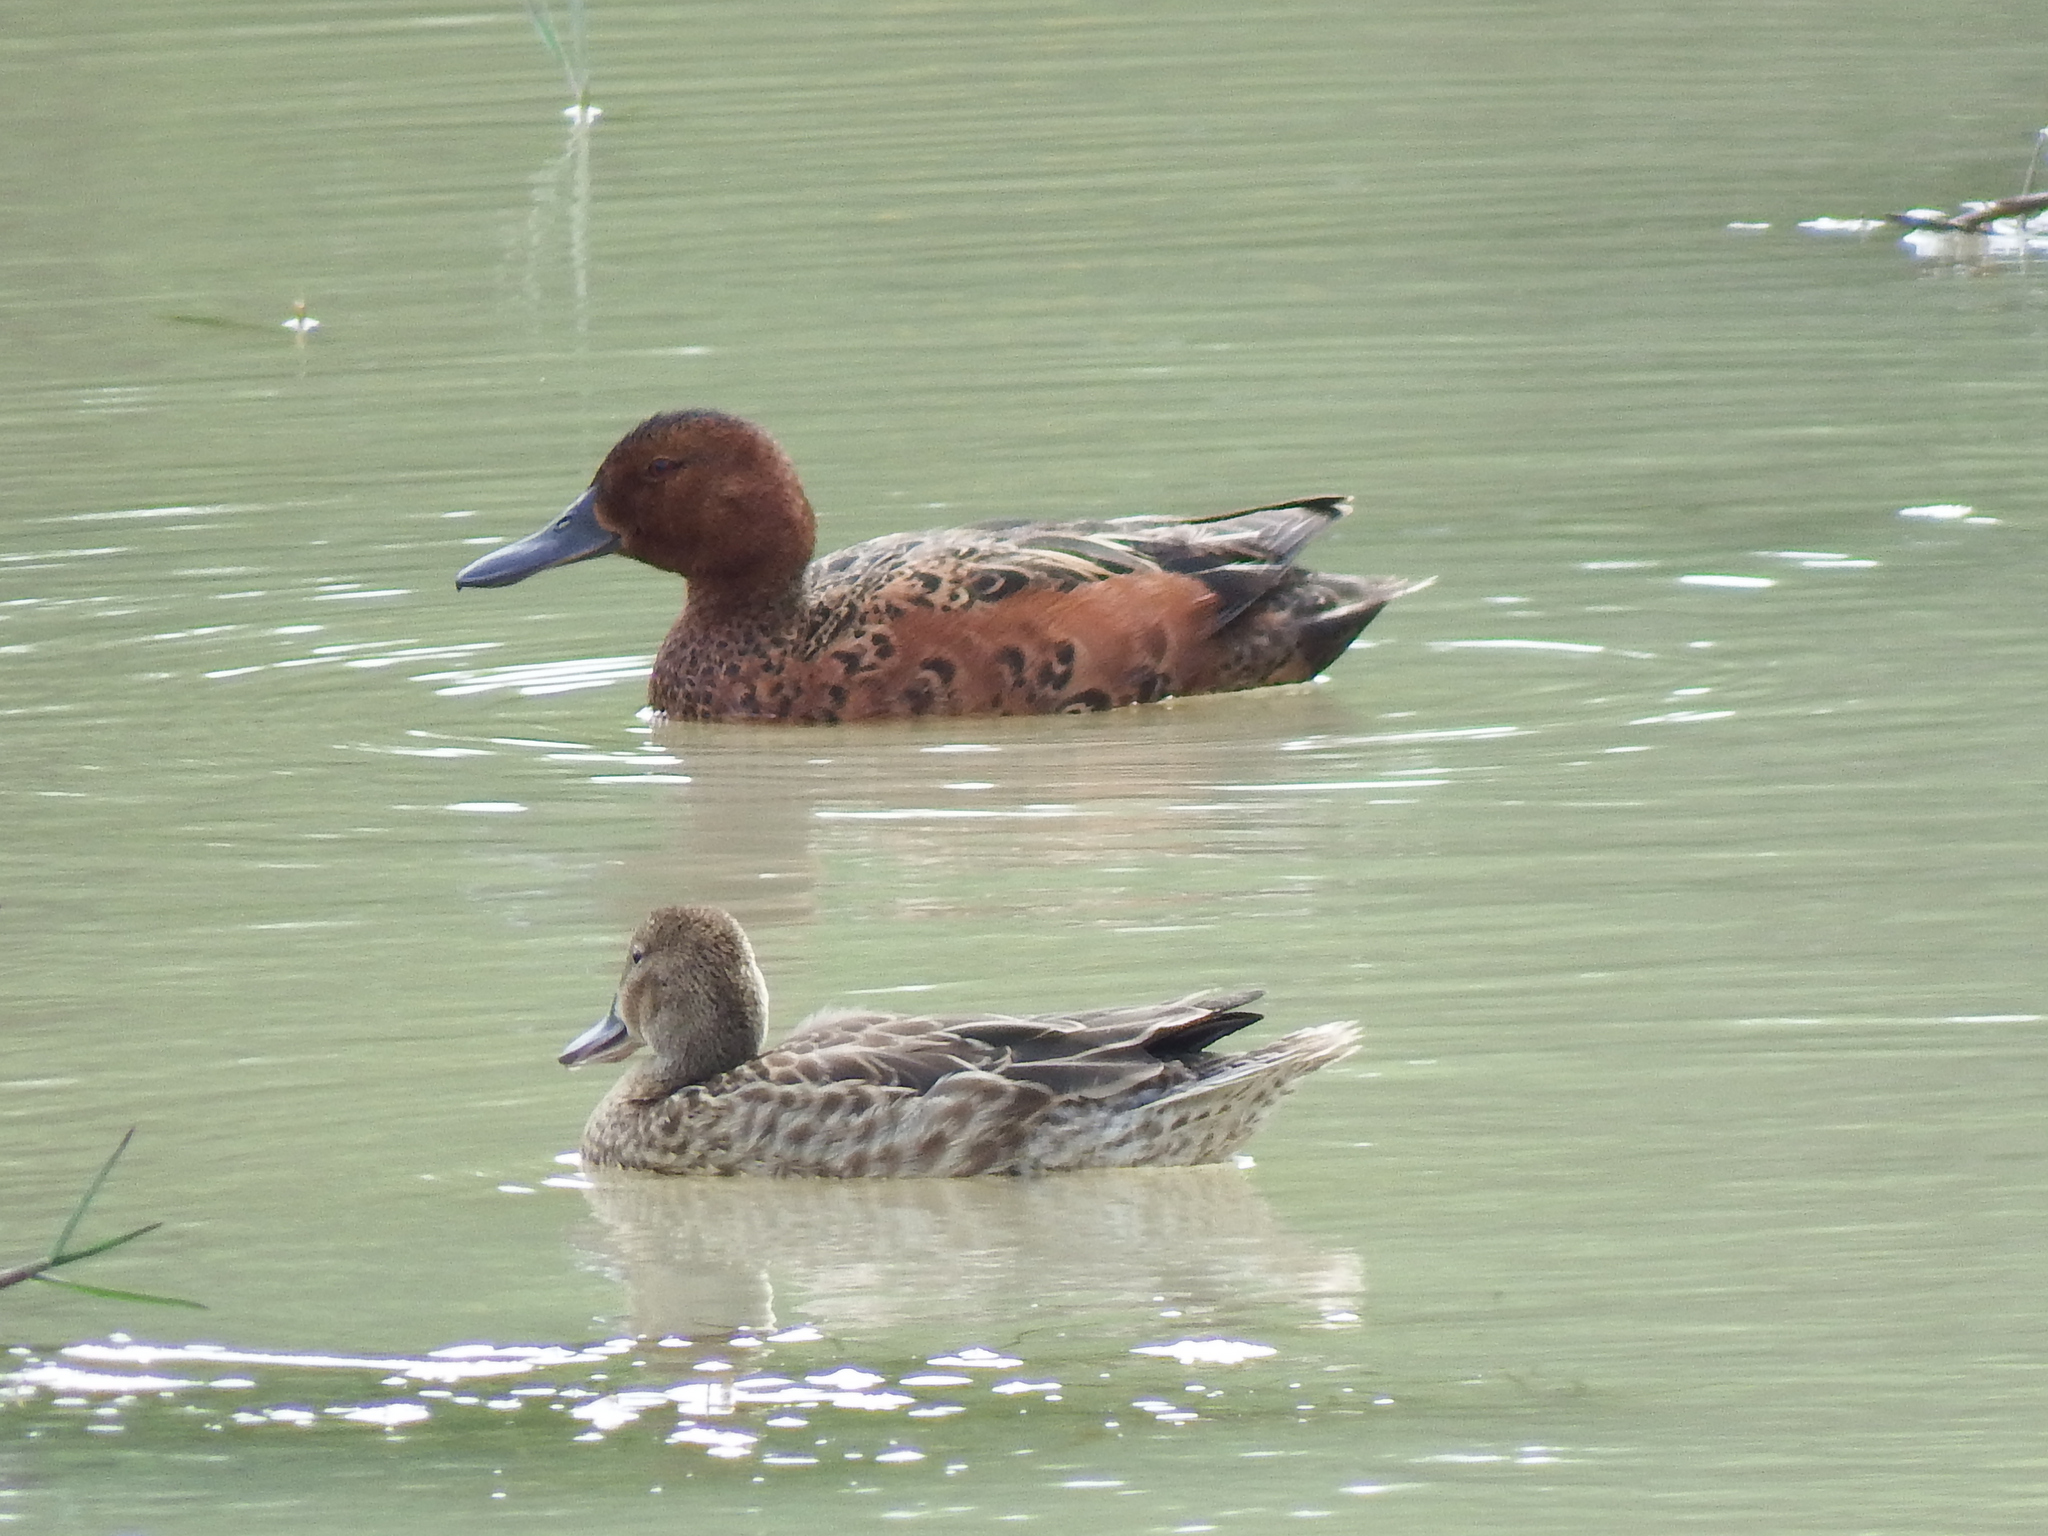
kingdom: Animalia
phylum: Chordata
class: Aves
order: Anseriformes
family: Anatidae
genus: Spatula
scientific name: Spatula cyanoptera
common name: Cinnamon teal
